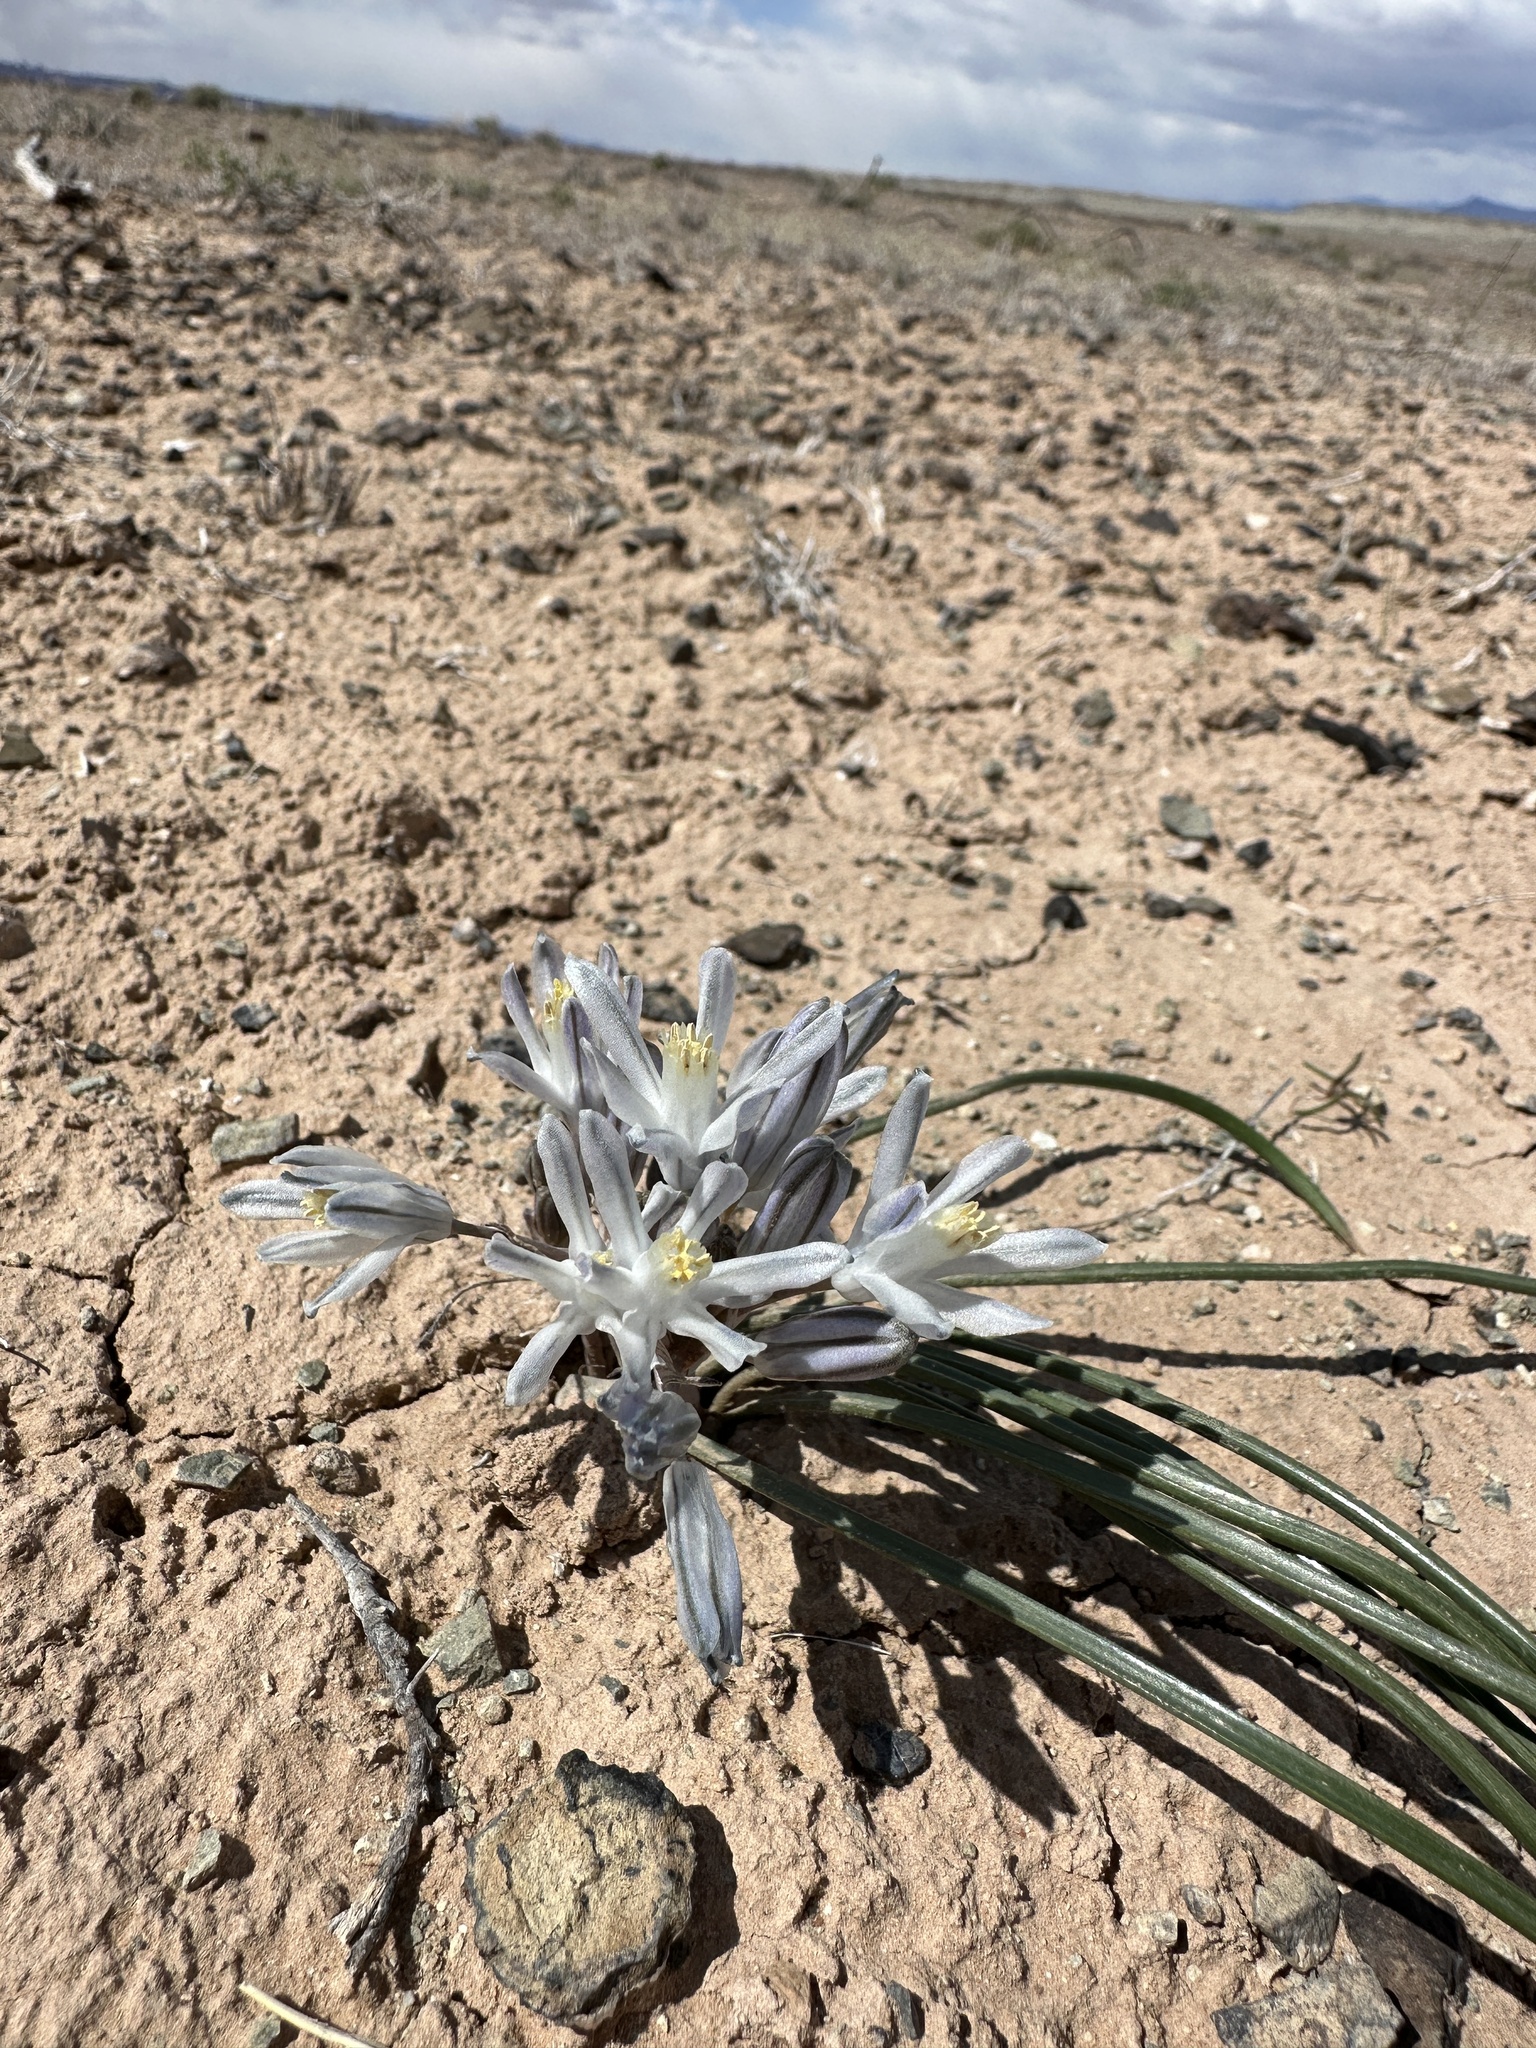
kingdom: Plantae
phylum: Tracheophyta
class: Liliopsida
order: Asparagales
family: Asparagaceae
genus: Androstephium
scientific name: Androstephium breviflorum
